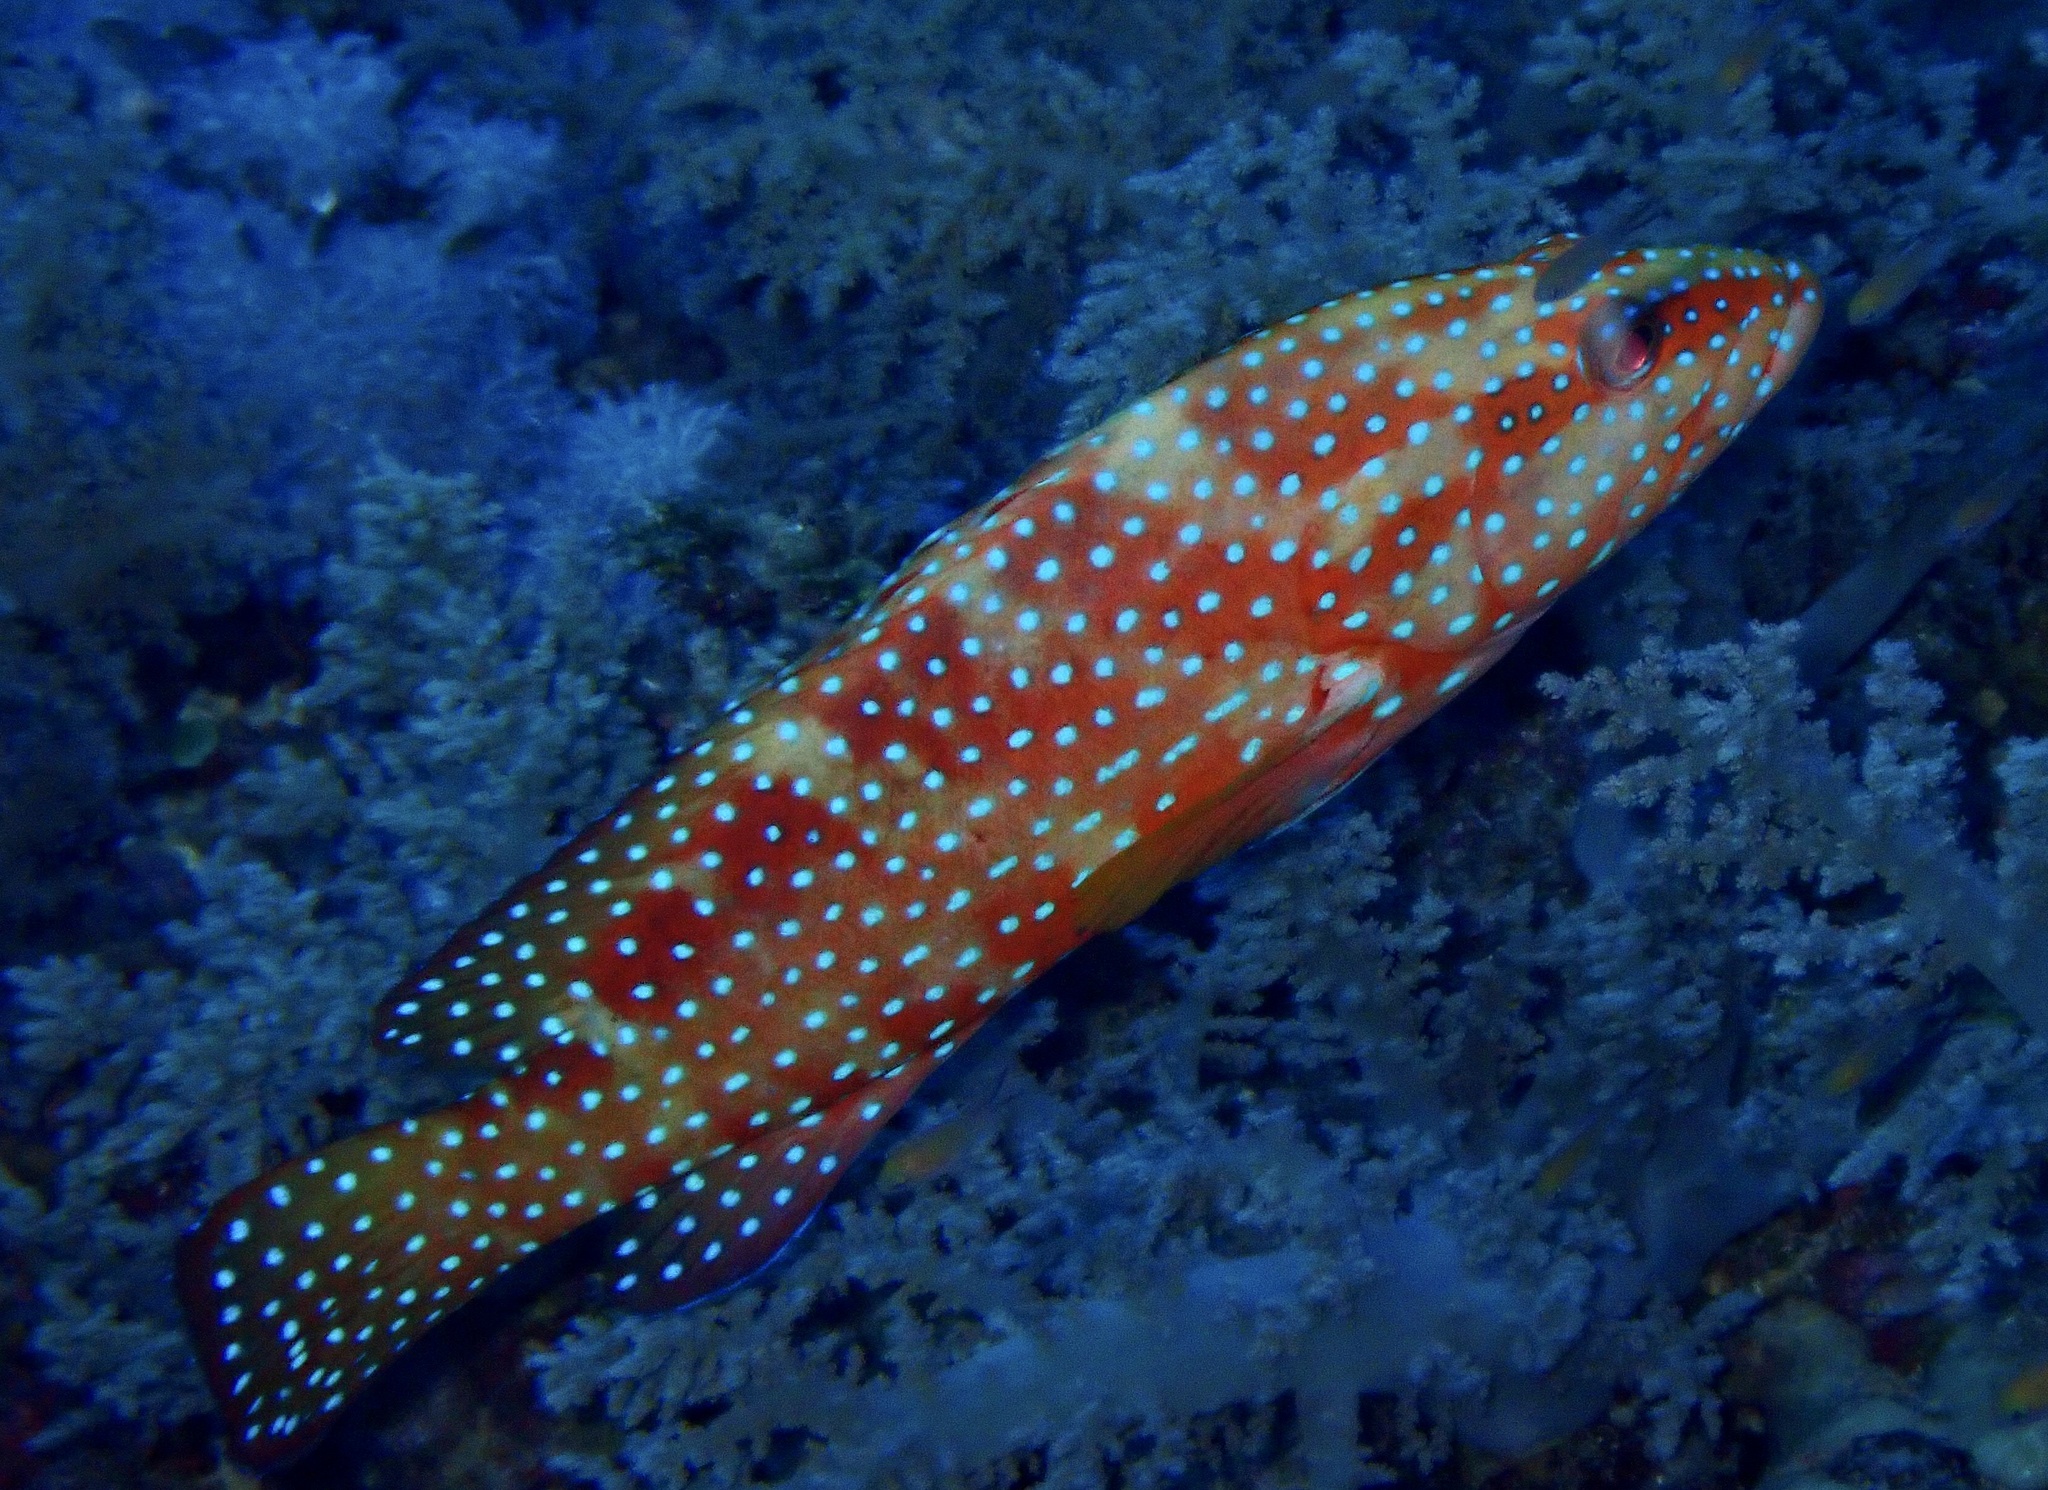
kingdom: Animalia
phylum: Chordata
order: Perciformes
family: Serranidae
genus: Cephalopholis
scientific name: Cephalopholis miniata
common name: Coral hind
